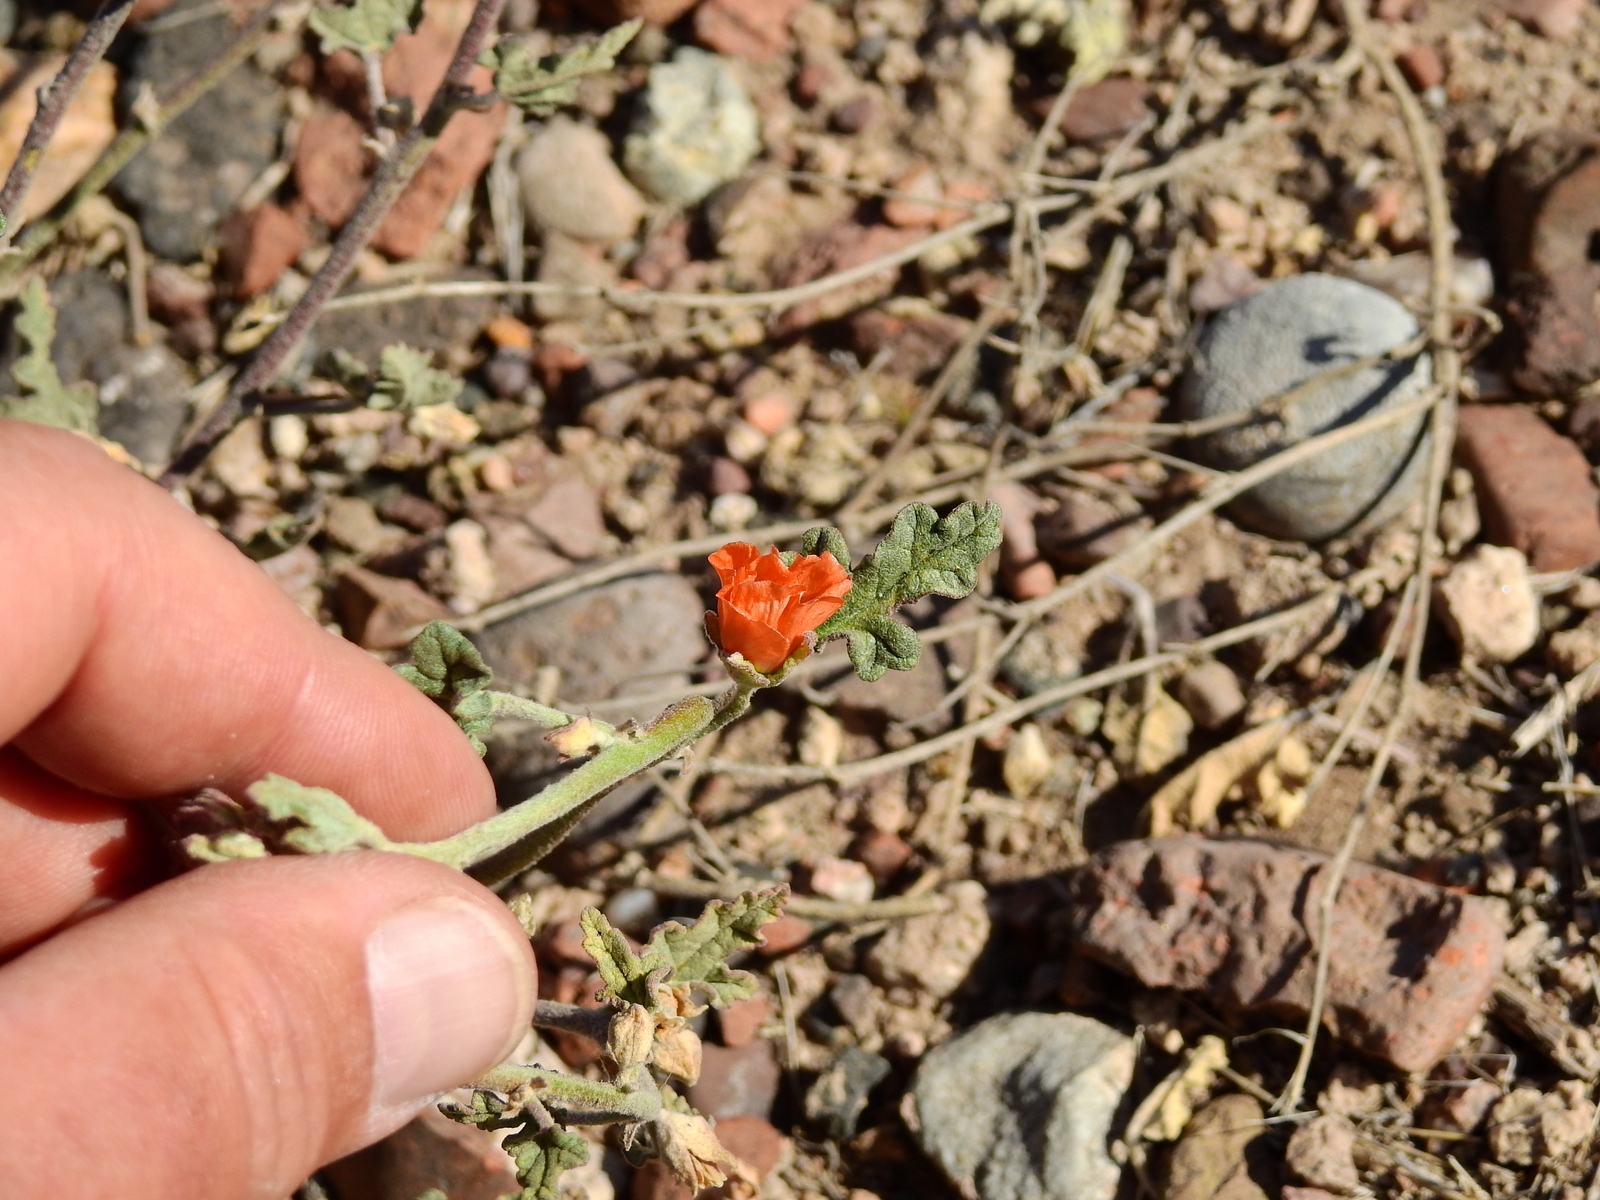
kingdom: Plantae
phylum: Tracheophyta
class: Magnoliopsida
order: Malvales
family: Malvaceae
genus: Sphaeralcea
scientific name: Sphaeralcea miniata
